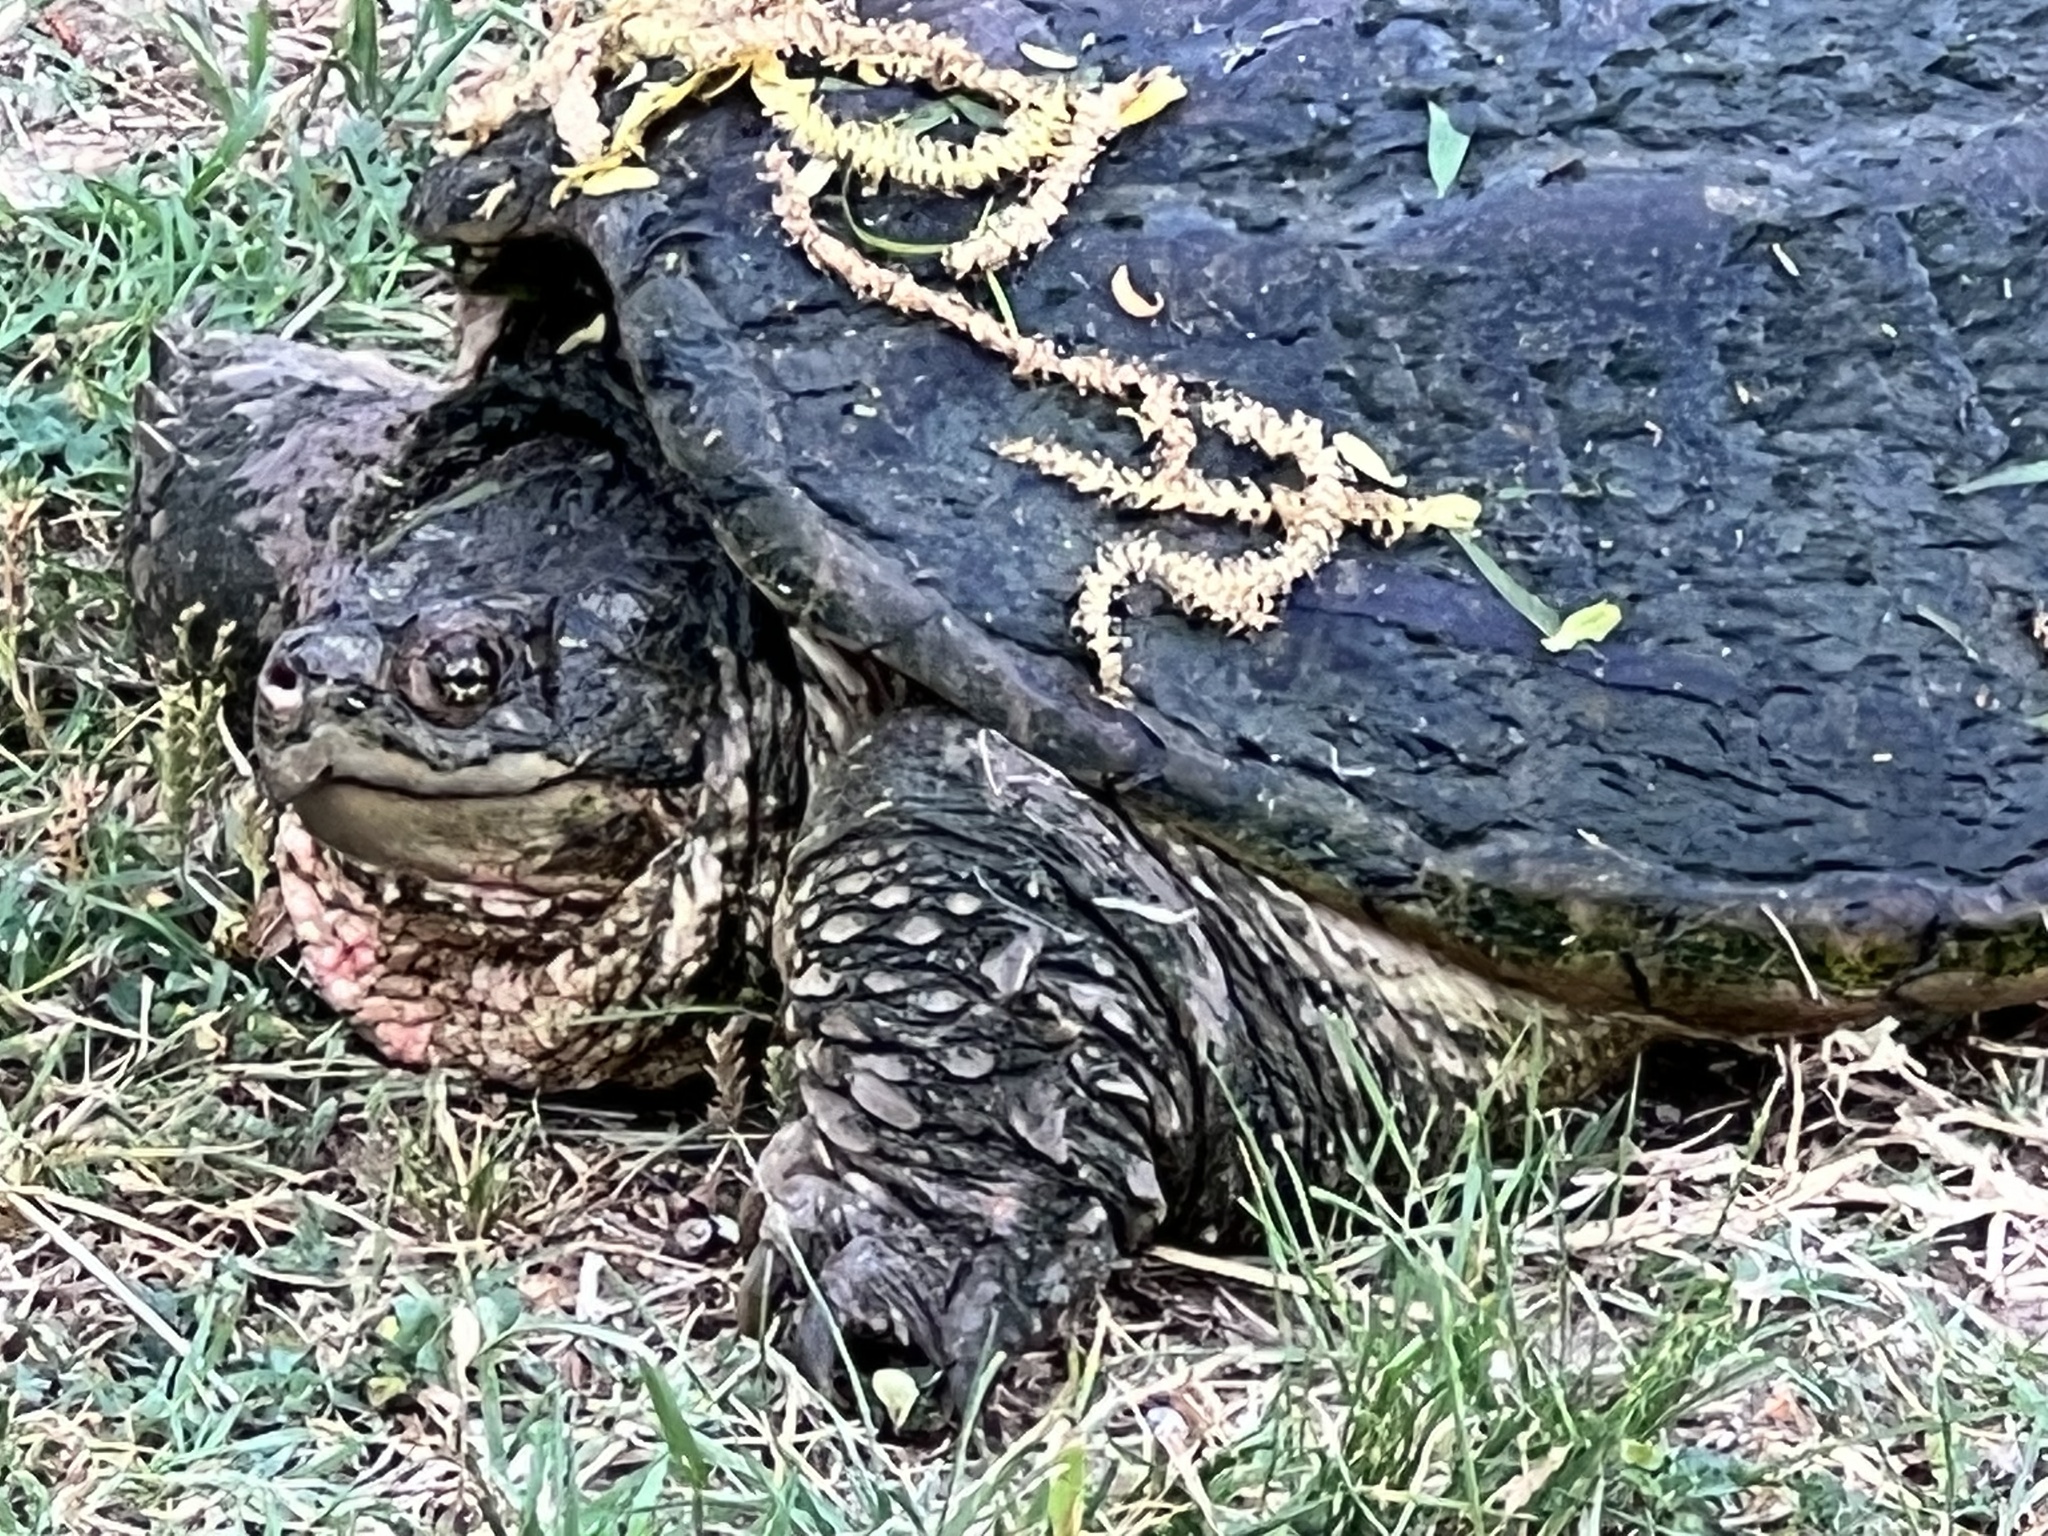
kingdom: Animalia
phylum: Chordata
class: Testudines
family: Chelydridae
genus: Chelydra
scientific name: Chelydra serpentina
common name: Common snapping turtle
